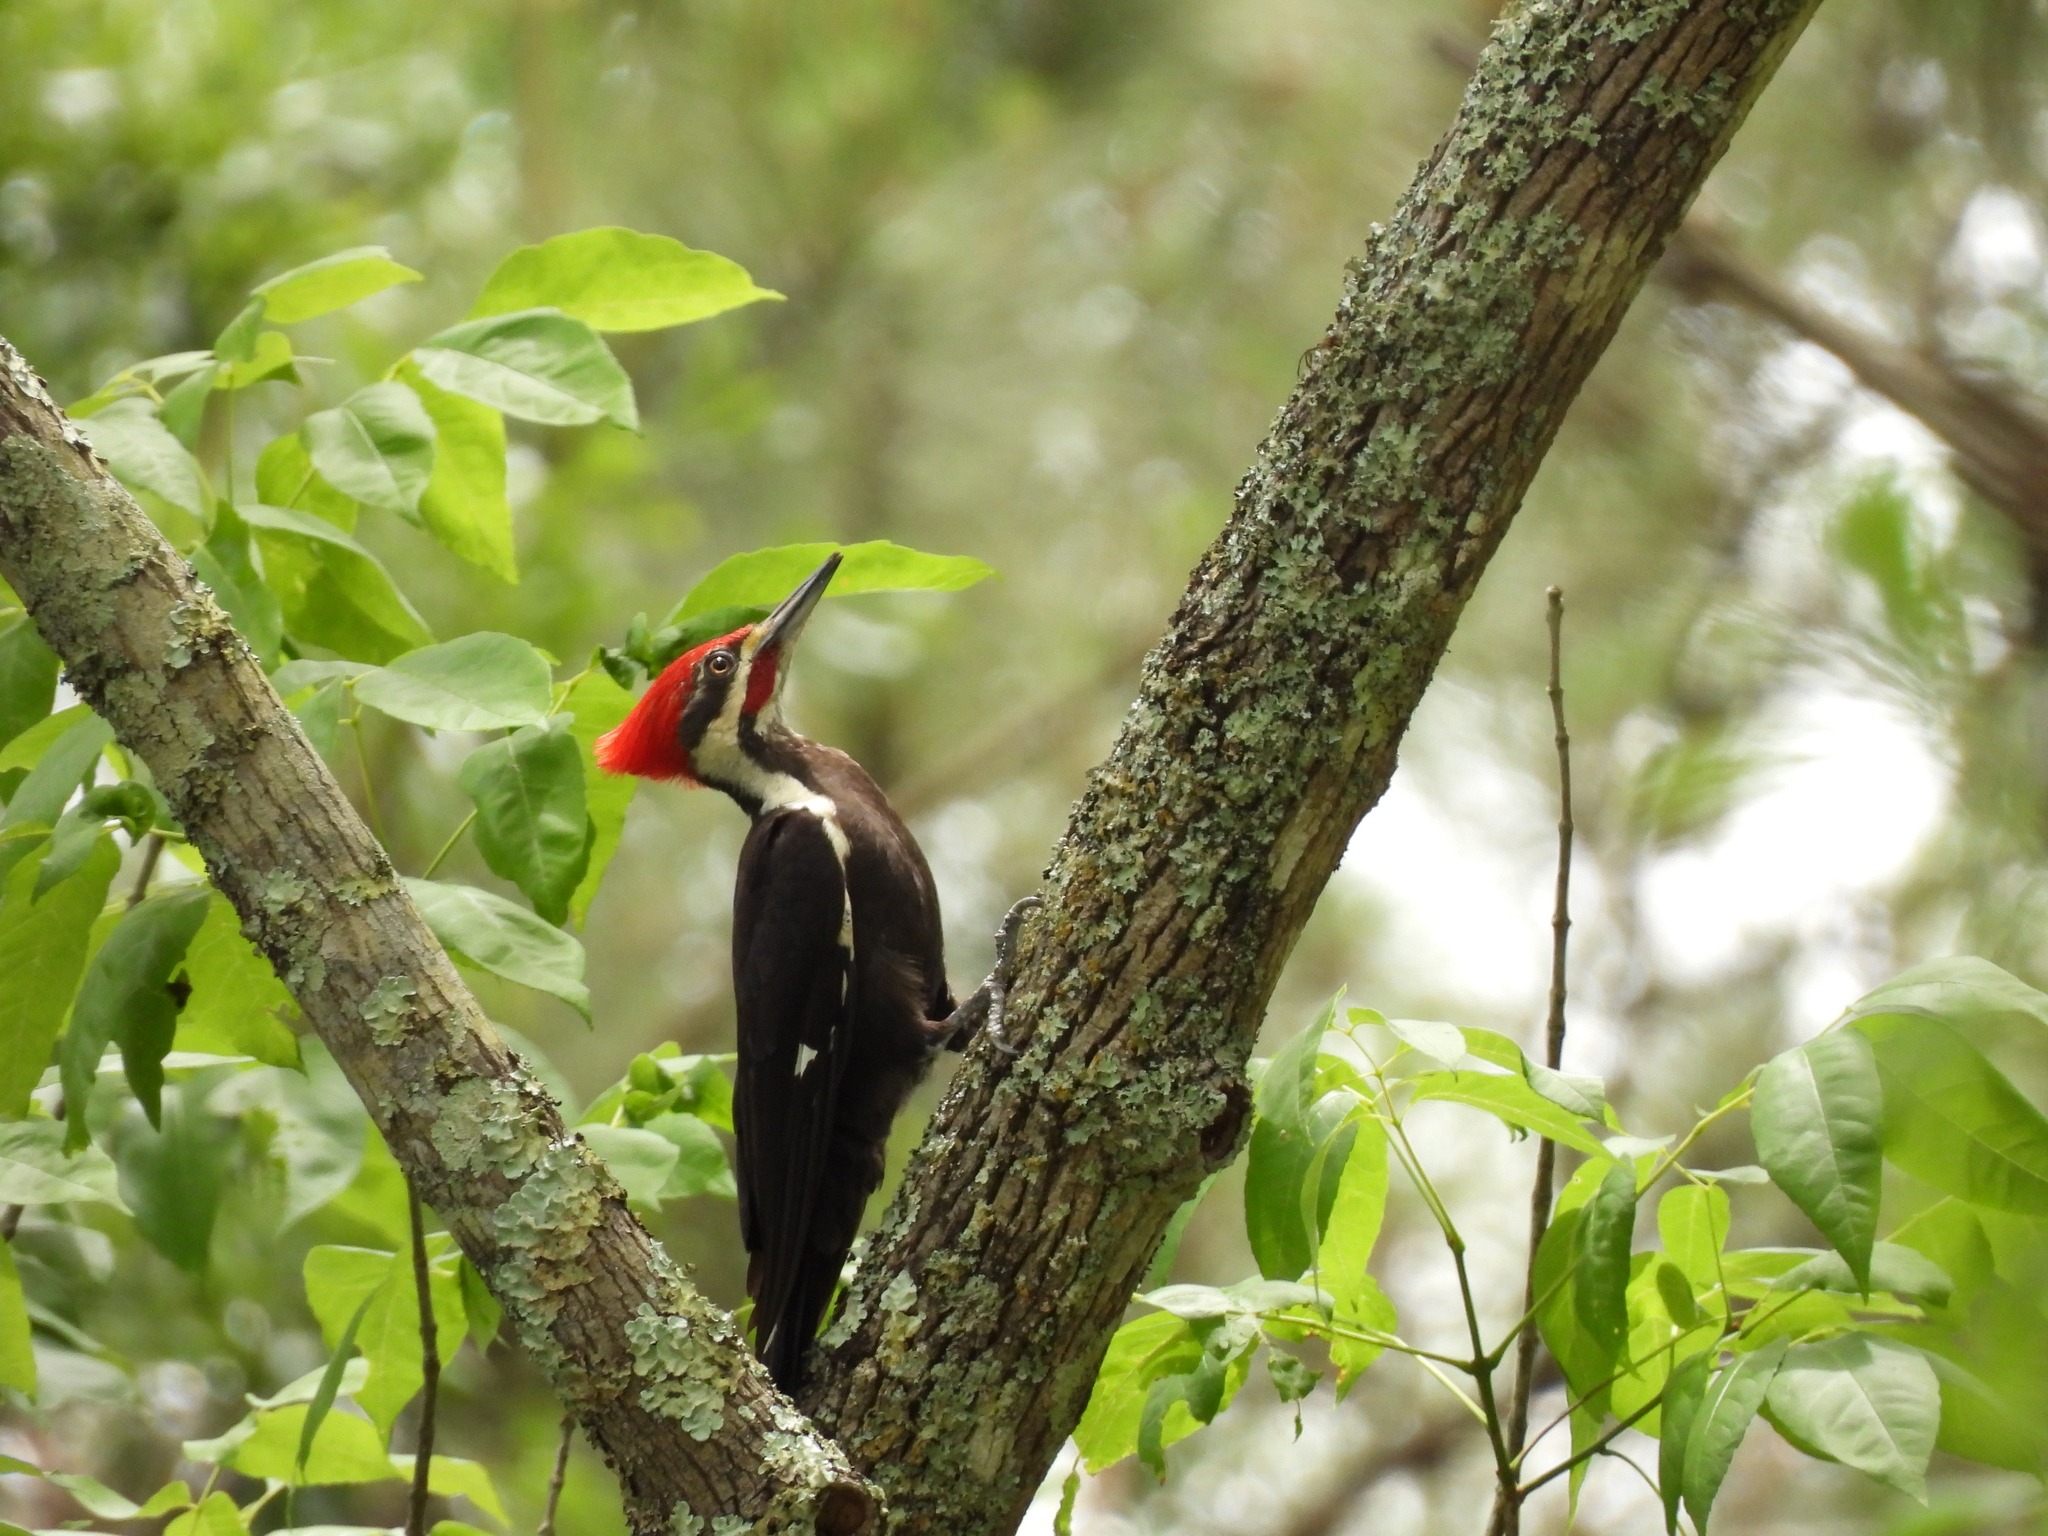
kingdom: Animalia
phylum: Chordata
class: Aves
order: Piciformes
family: Picidae
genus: Dryocopus
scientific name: Dryocopus pileatus
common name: Pileated woodpecker
